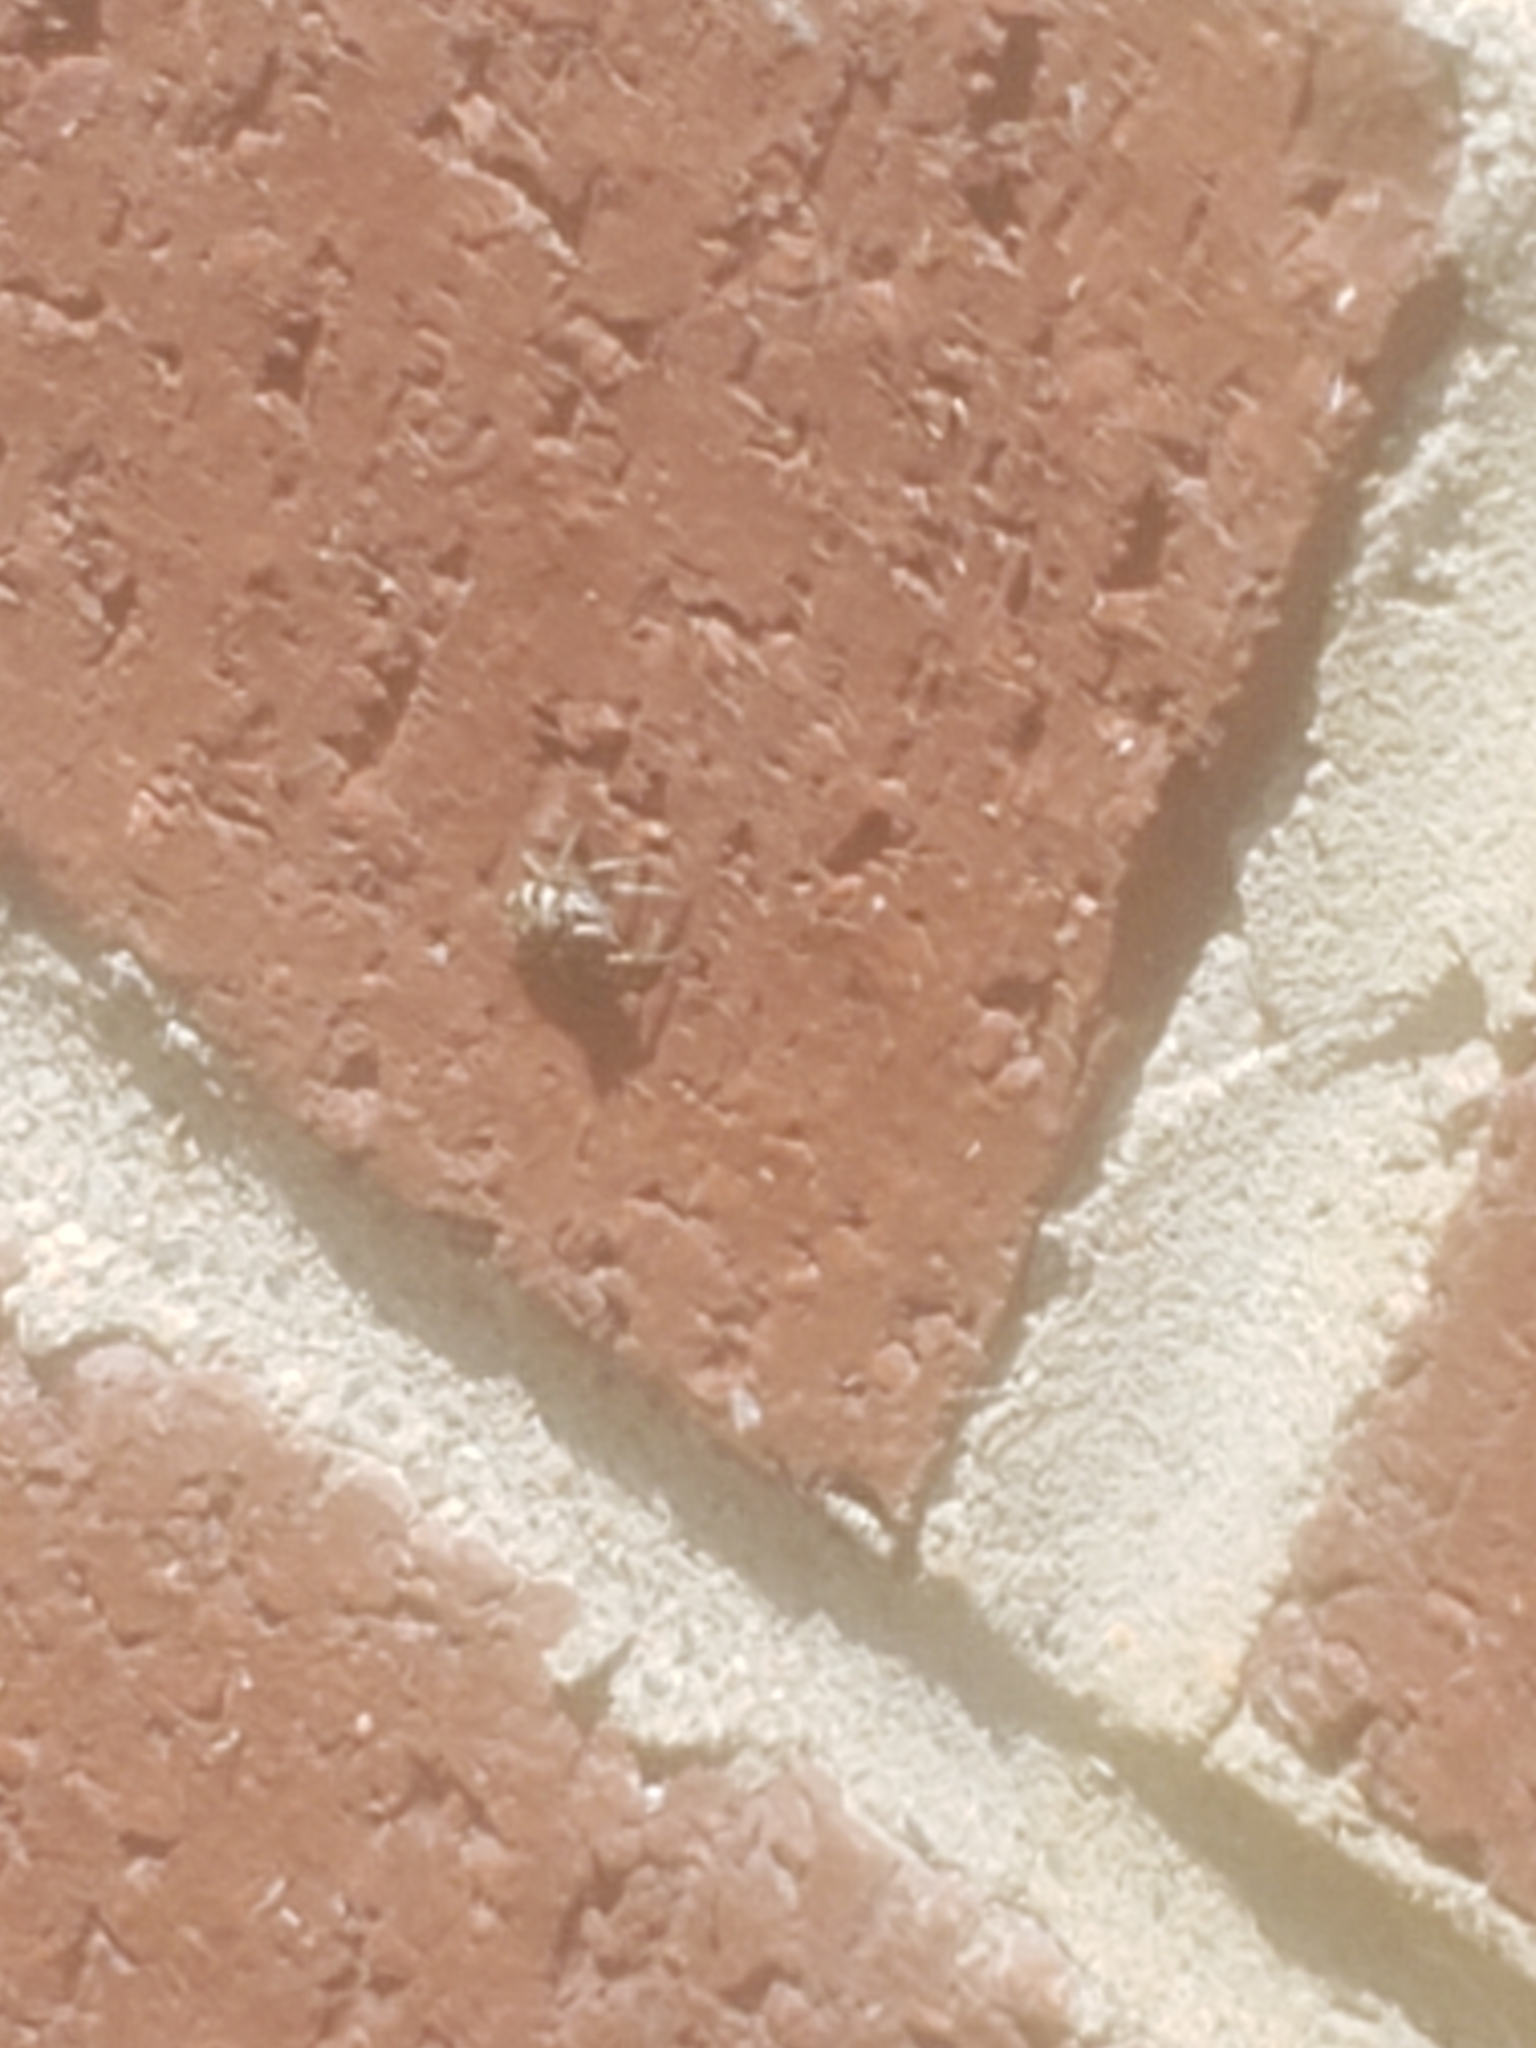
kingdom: Animalia
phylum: Arthropoda
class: Arachnida
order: Araneae
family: Salticidae
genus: Salticus
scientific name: Salticus scenicus
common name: Zebra jumper
